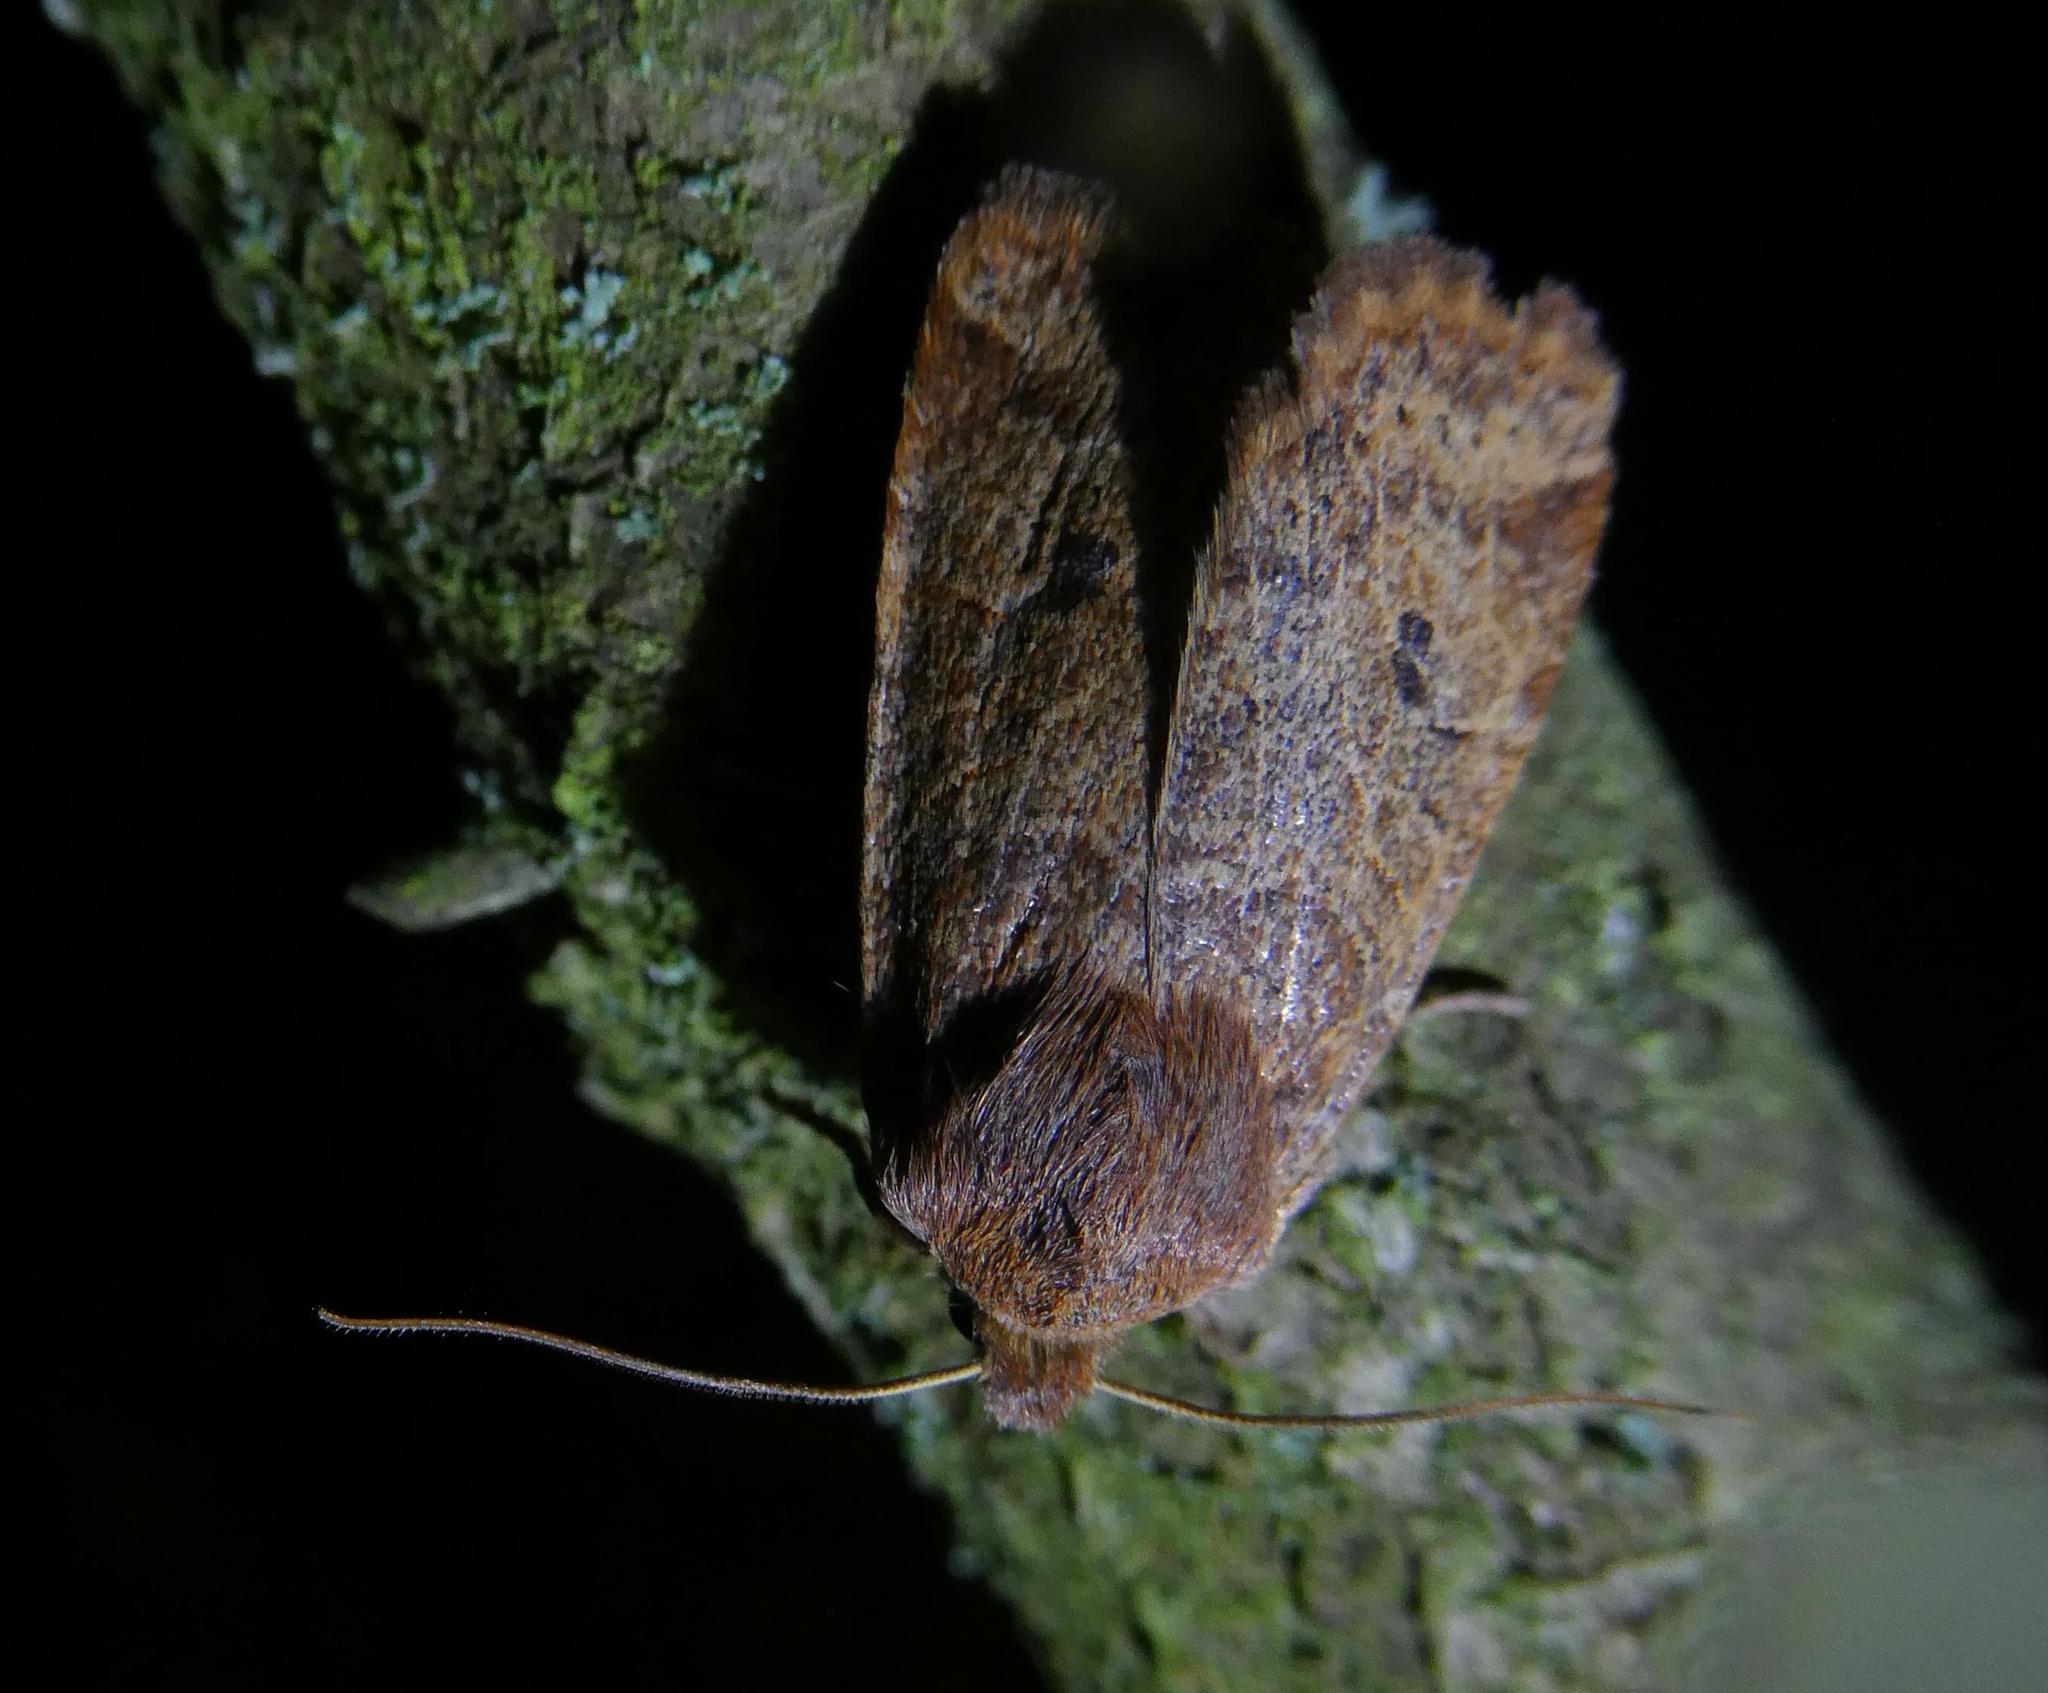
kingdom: Animalia
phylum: Arthropoda
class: Insecta
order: Lepidoptera
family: Noctuidae
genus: Conistra
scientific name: Conistra vaccinii
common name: Chestnut
